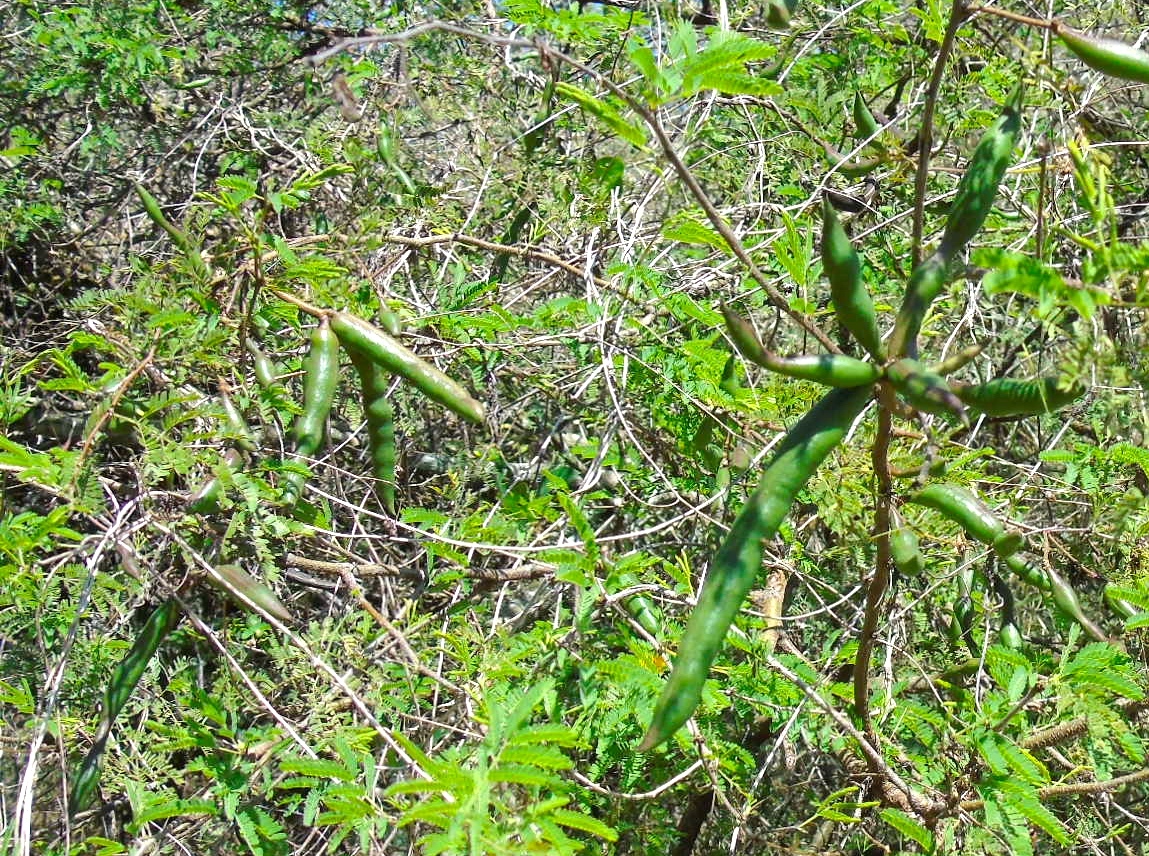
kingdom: Plantae
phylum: Tracheophyta
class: Magnoliopsida
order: Fabales
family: Fabaceae
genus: Vachellia
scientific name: Vachellia farnesiana
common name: Sweet acacia
